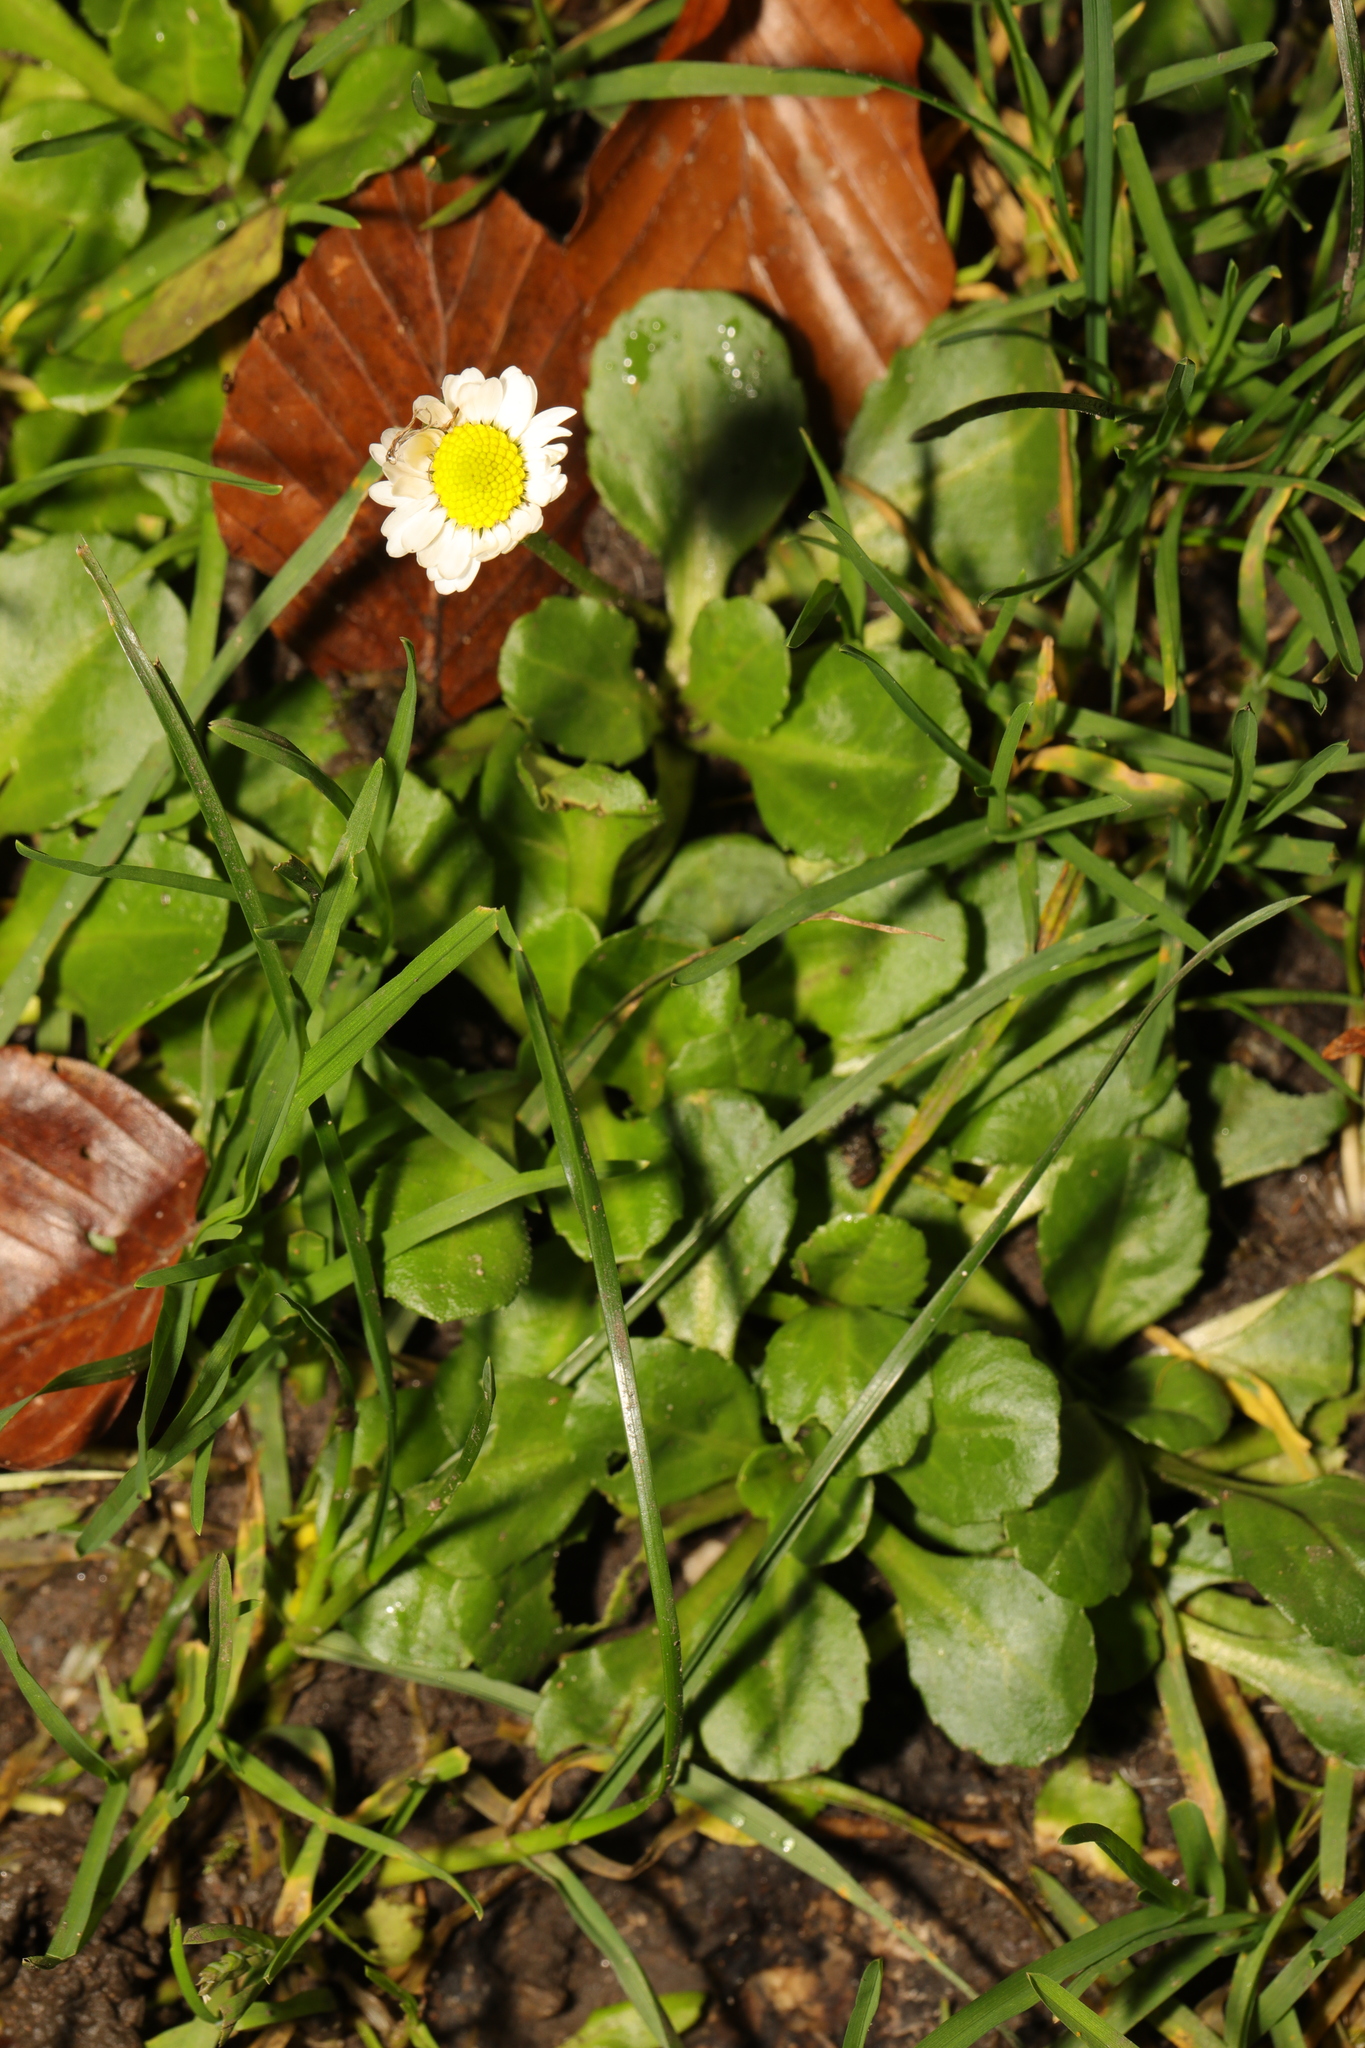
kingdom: Plantae
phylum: Tracheophyta
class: Magnoliopsida
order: Asterales
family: Asteraceae
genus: Bellis
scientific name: Bellis perennis
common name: Lawndaisy
